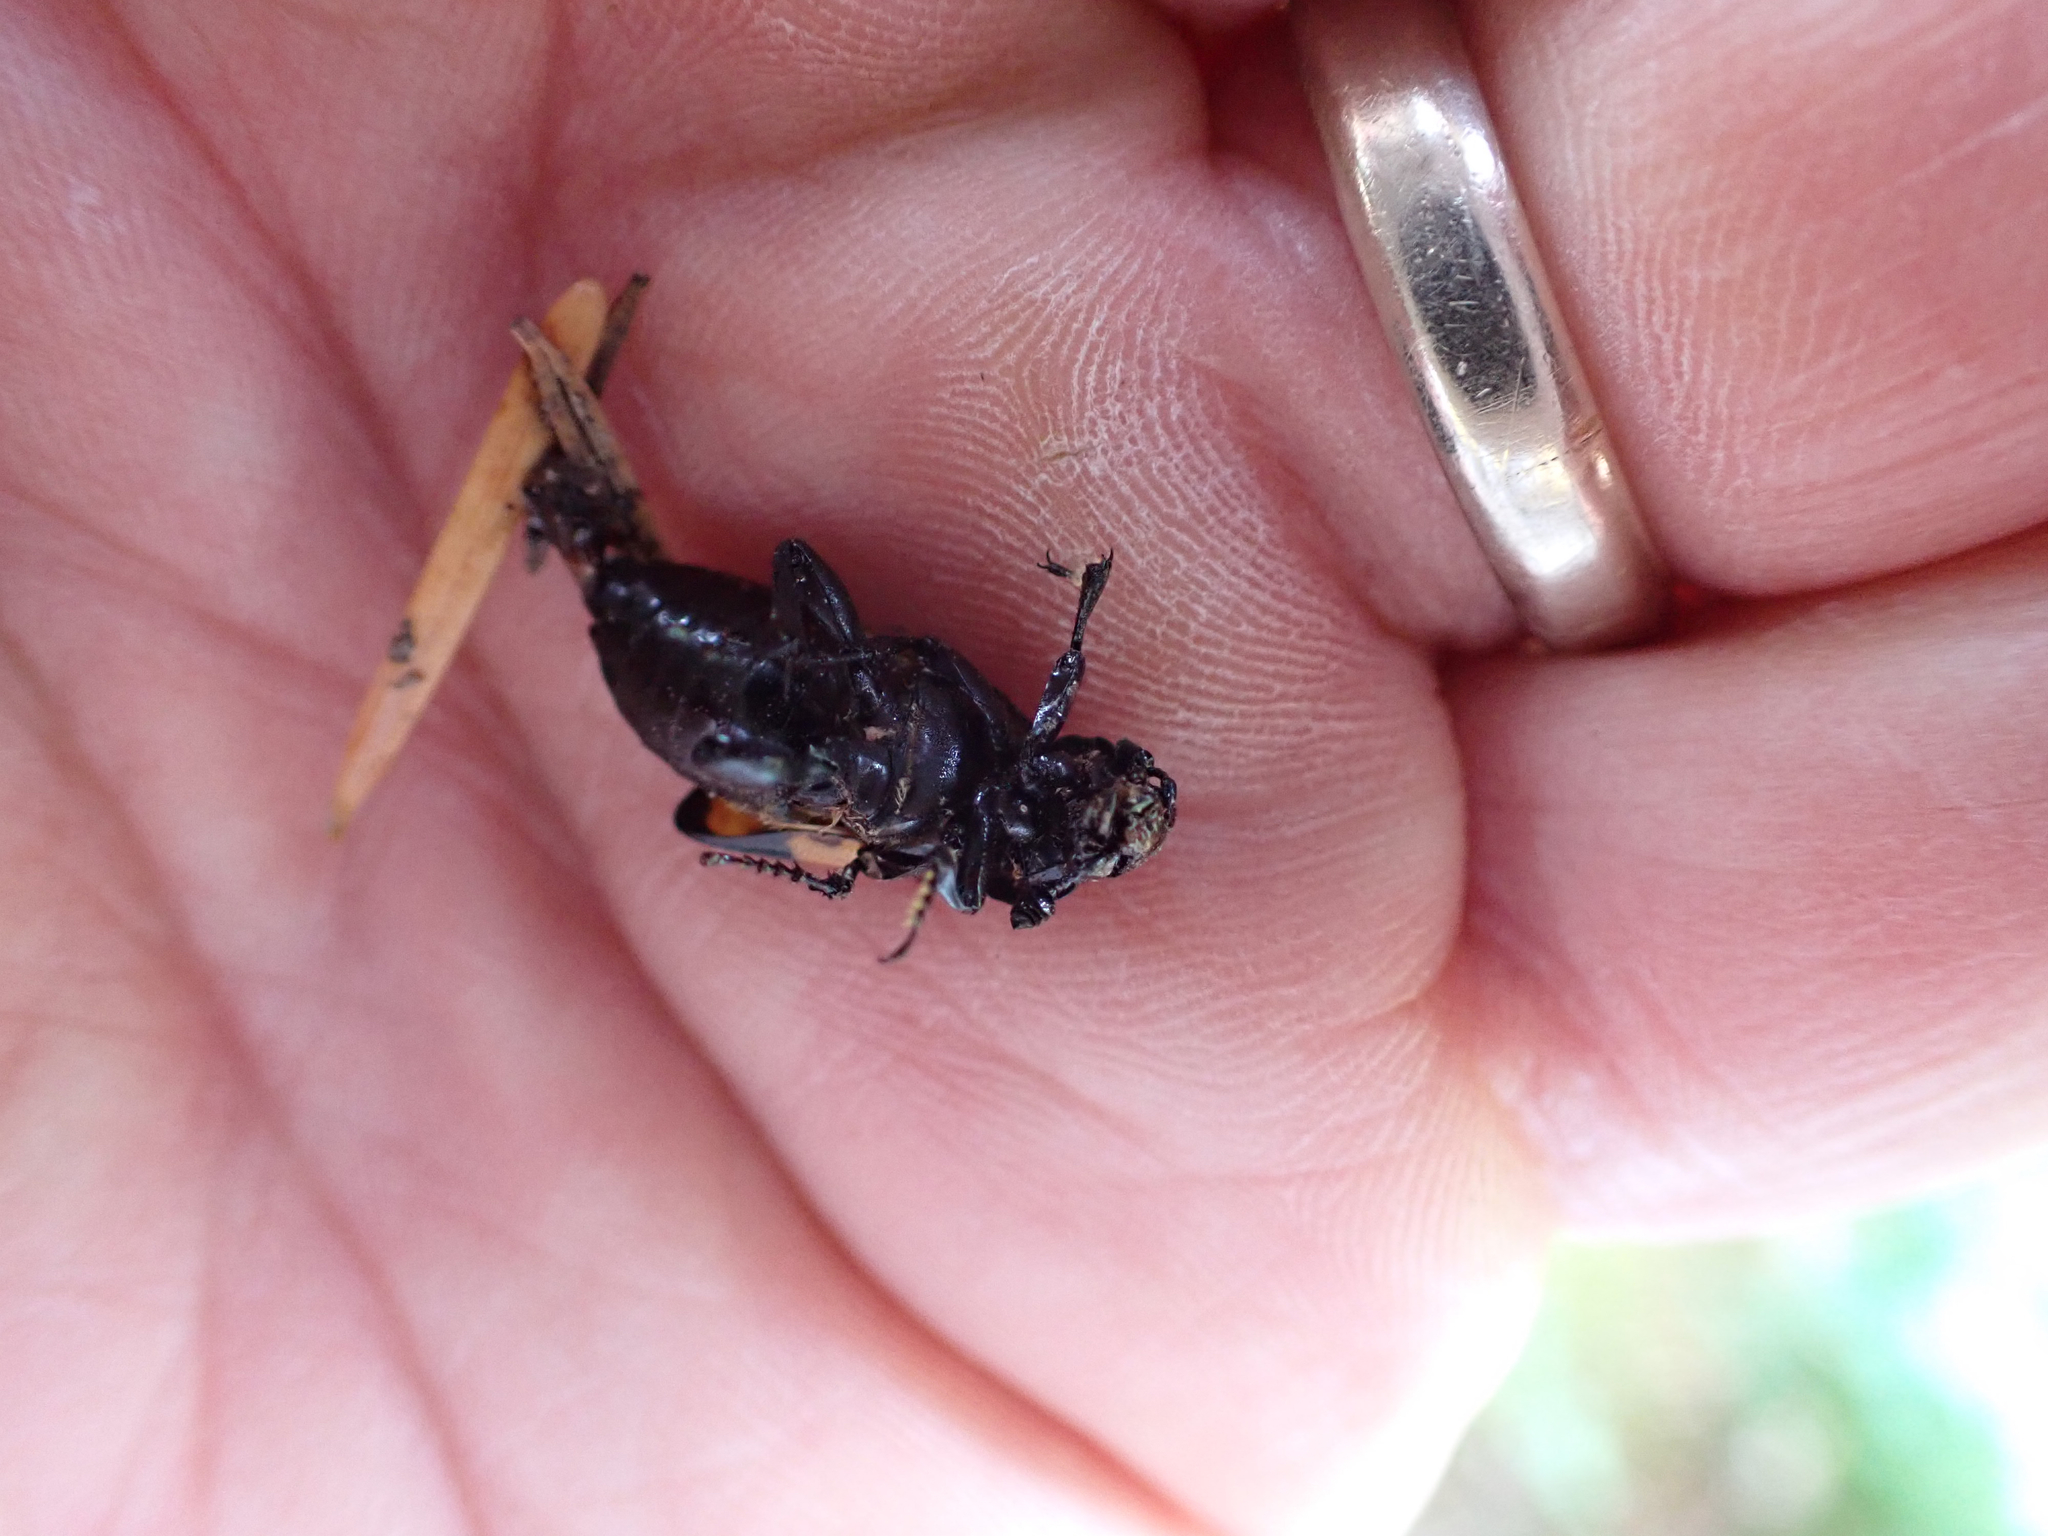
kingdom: Animalia
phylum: Arthropoda
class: Insecta
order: Coleoptera
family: Staphylinidae
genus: Nicrophorus
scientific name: Nicrophorus defodiens
